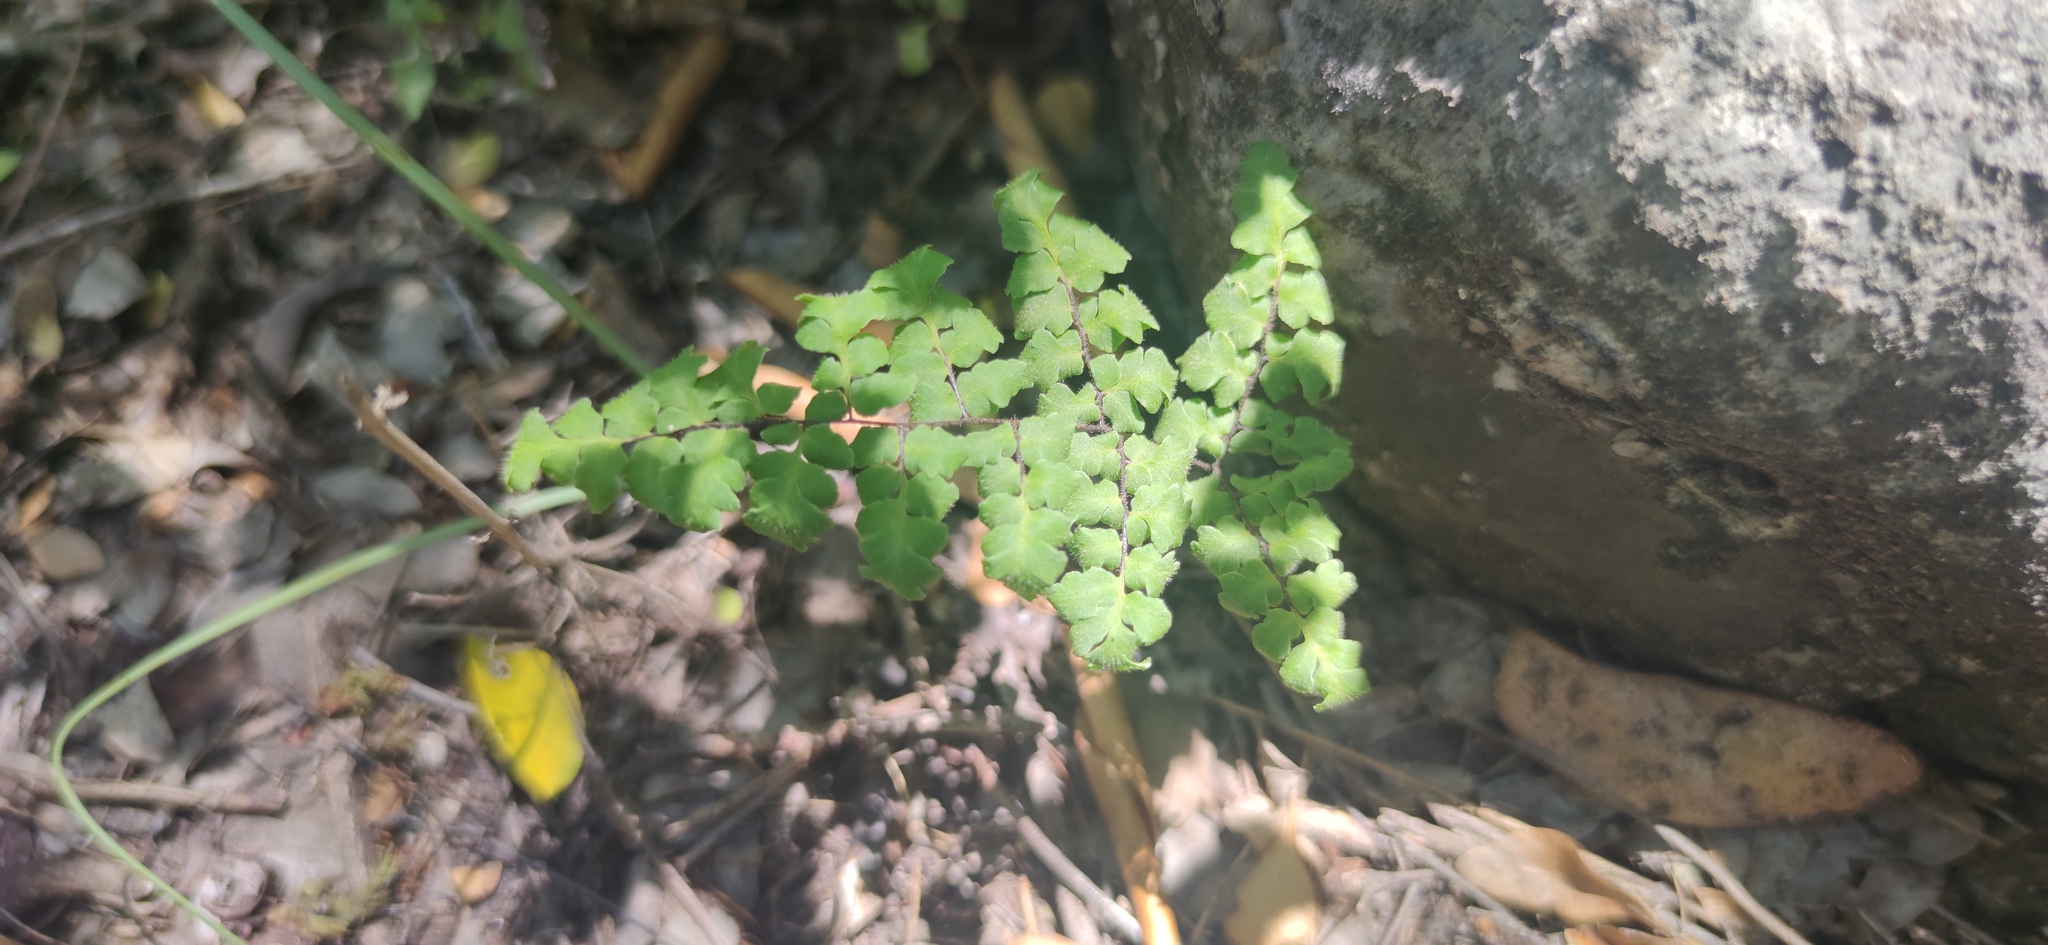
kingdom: Plantae
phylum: Tracheophyta
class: Polypodiopsida
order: Polypodiales
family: Pteridaceae
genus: Myriopteris
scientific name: Myriopteris aemula
